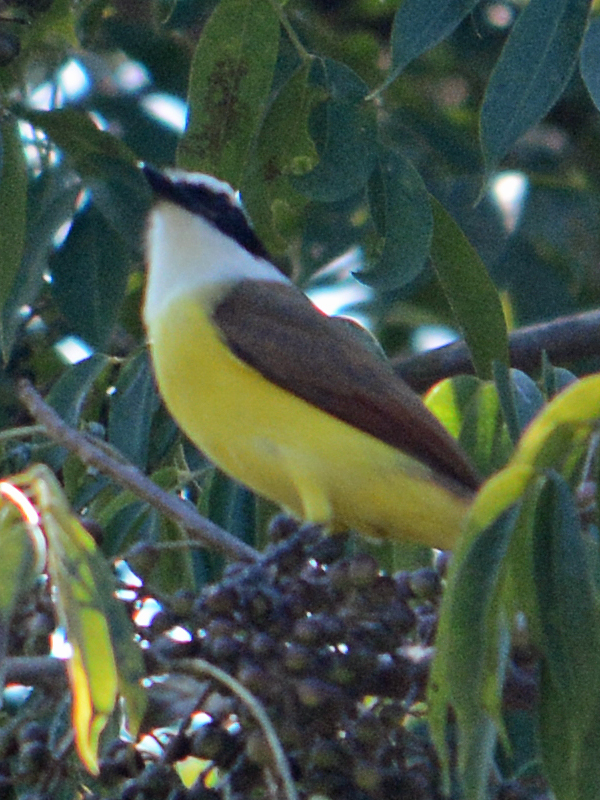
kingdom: Animalia
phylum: Chordata
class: Aves
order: Passeriformes
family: Tyrannidae
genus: Pitangus
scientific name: Pitangus sulphuratus
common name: Great kiskadee
